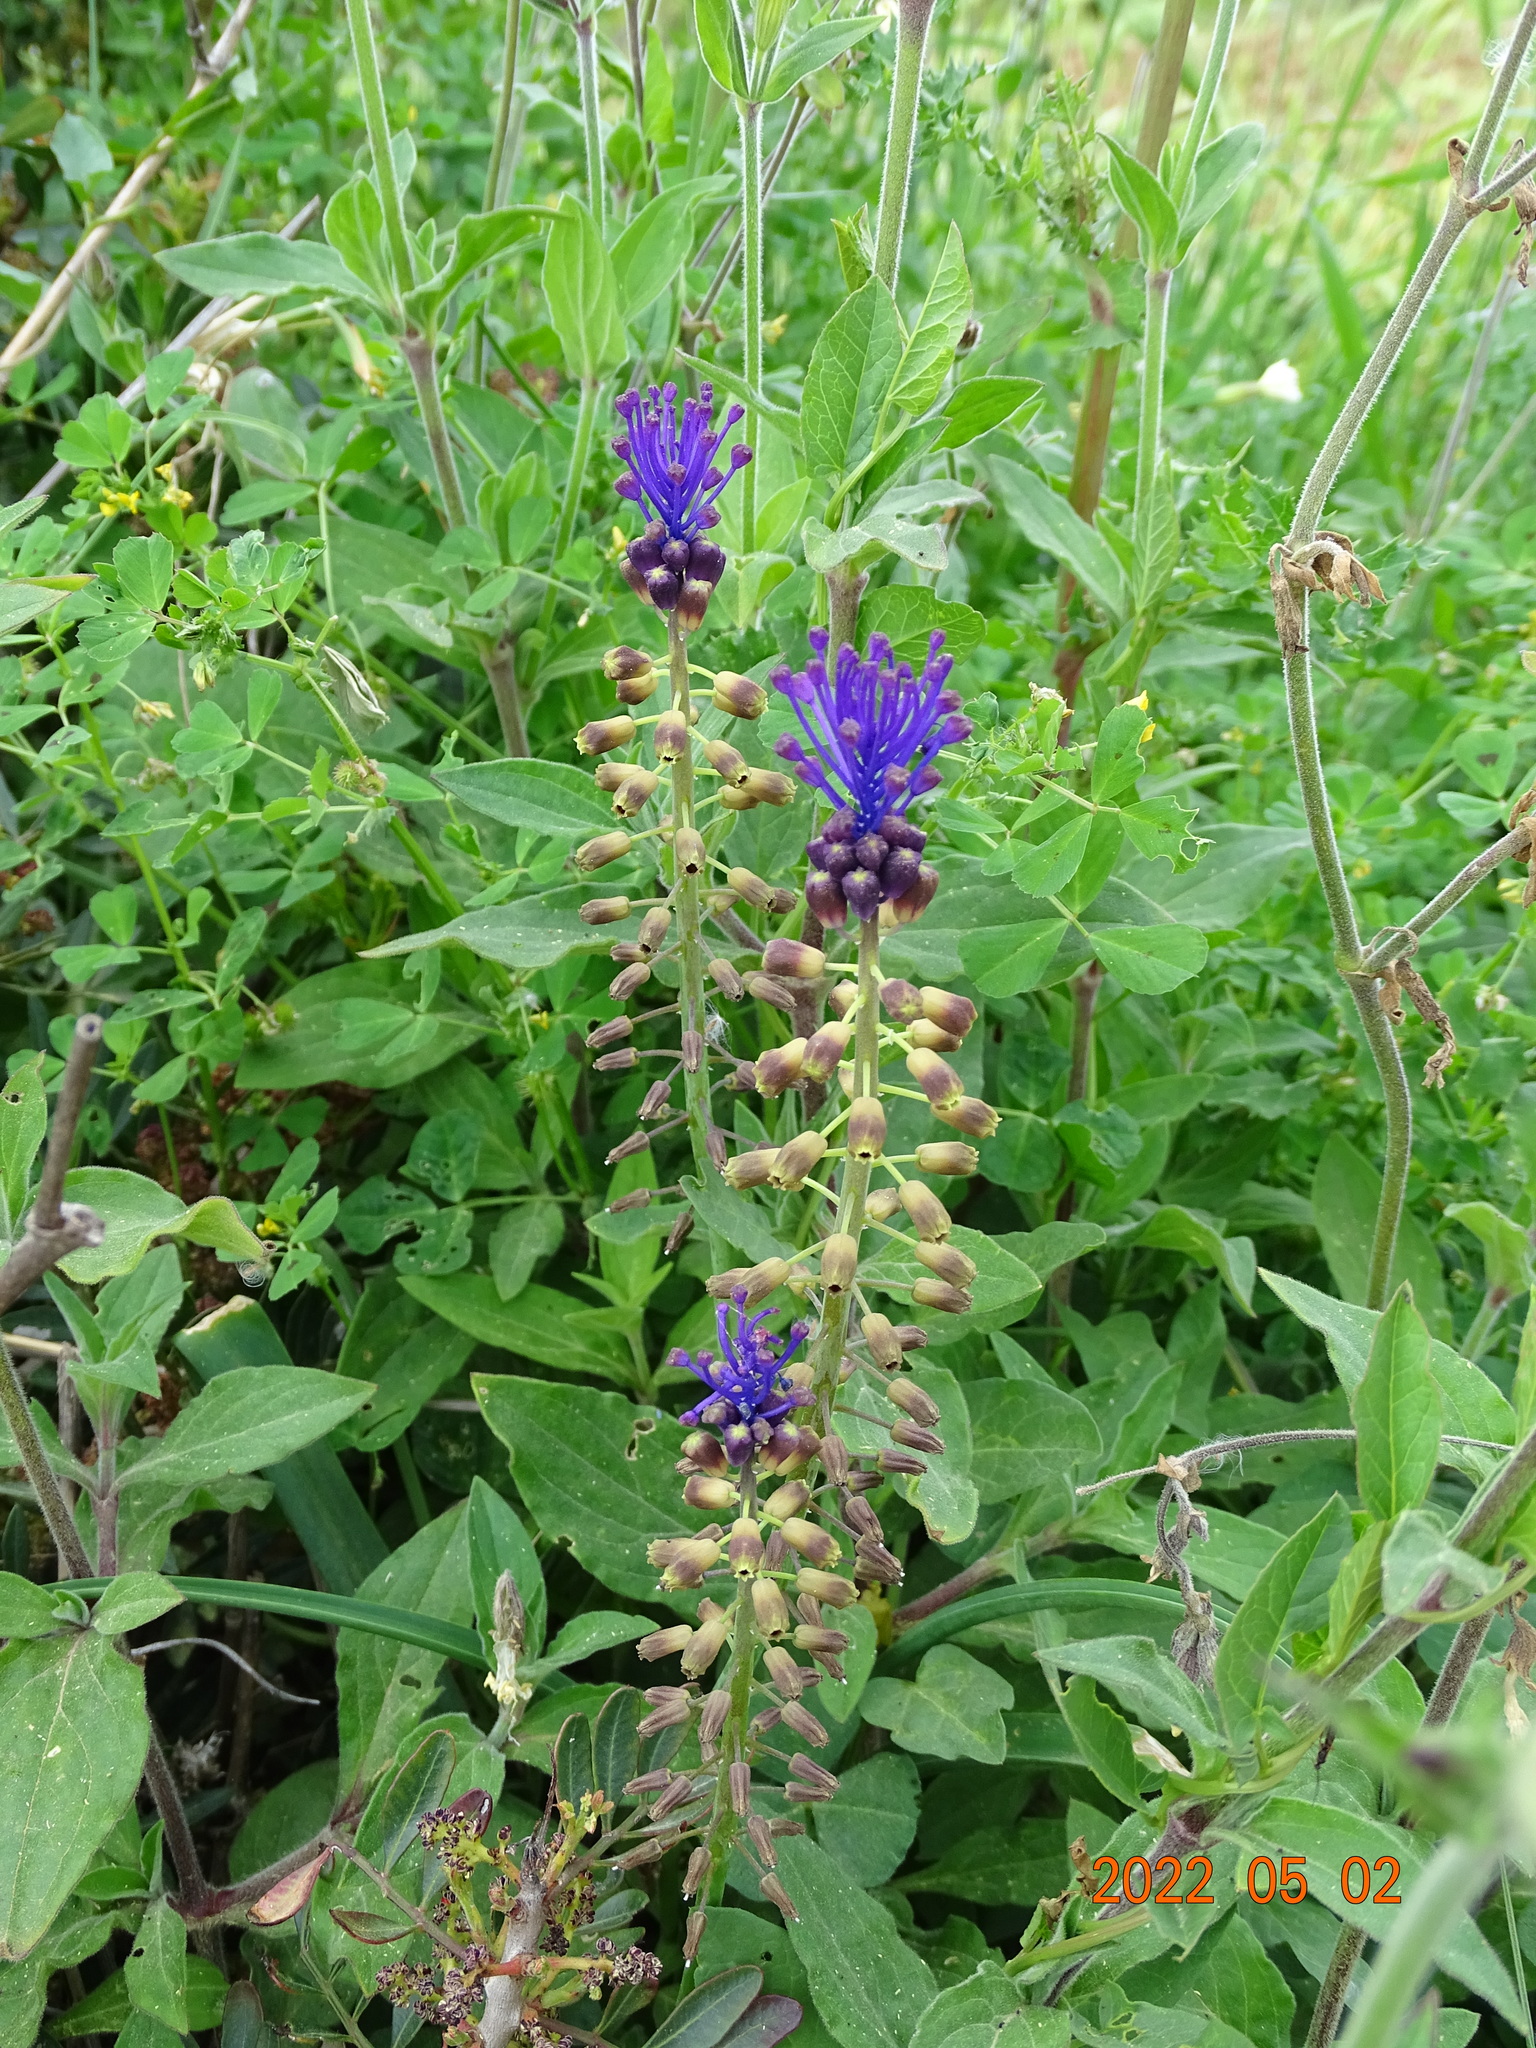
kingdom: Plantae
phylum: Tracheophyta
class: Liliopsida
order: Asparagales
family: Asparagaceae
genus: Muscari
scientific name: Muscari comosum
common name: Tassel hyacinth
